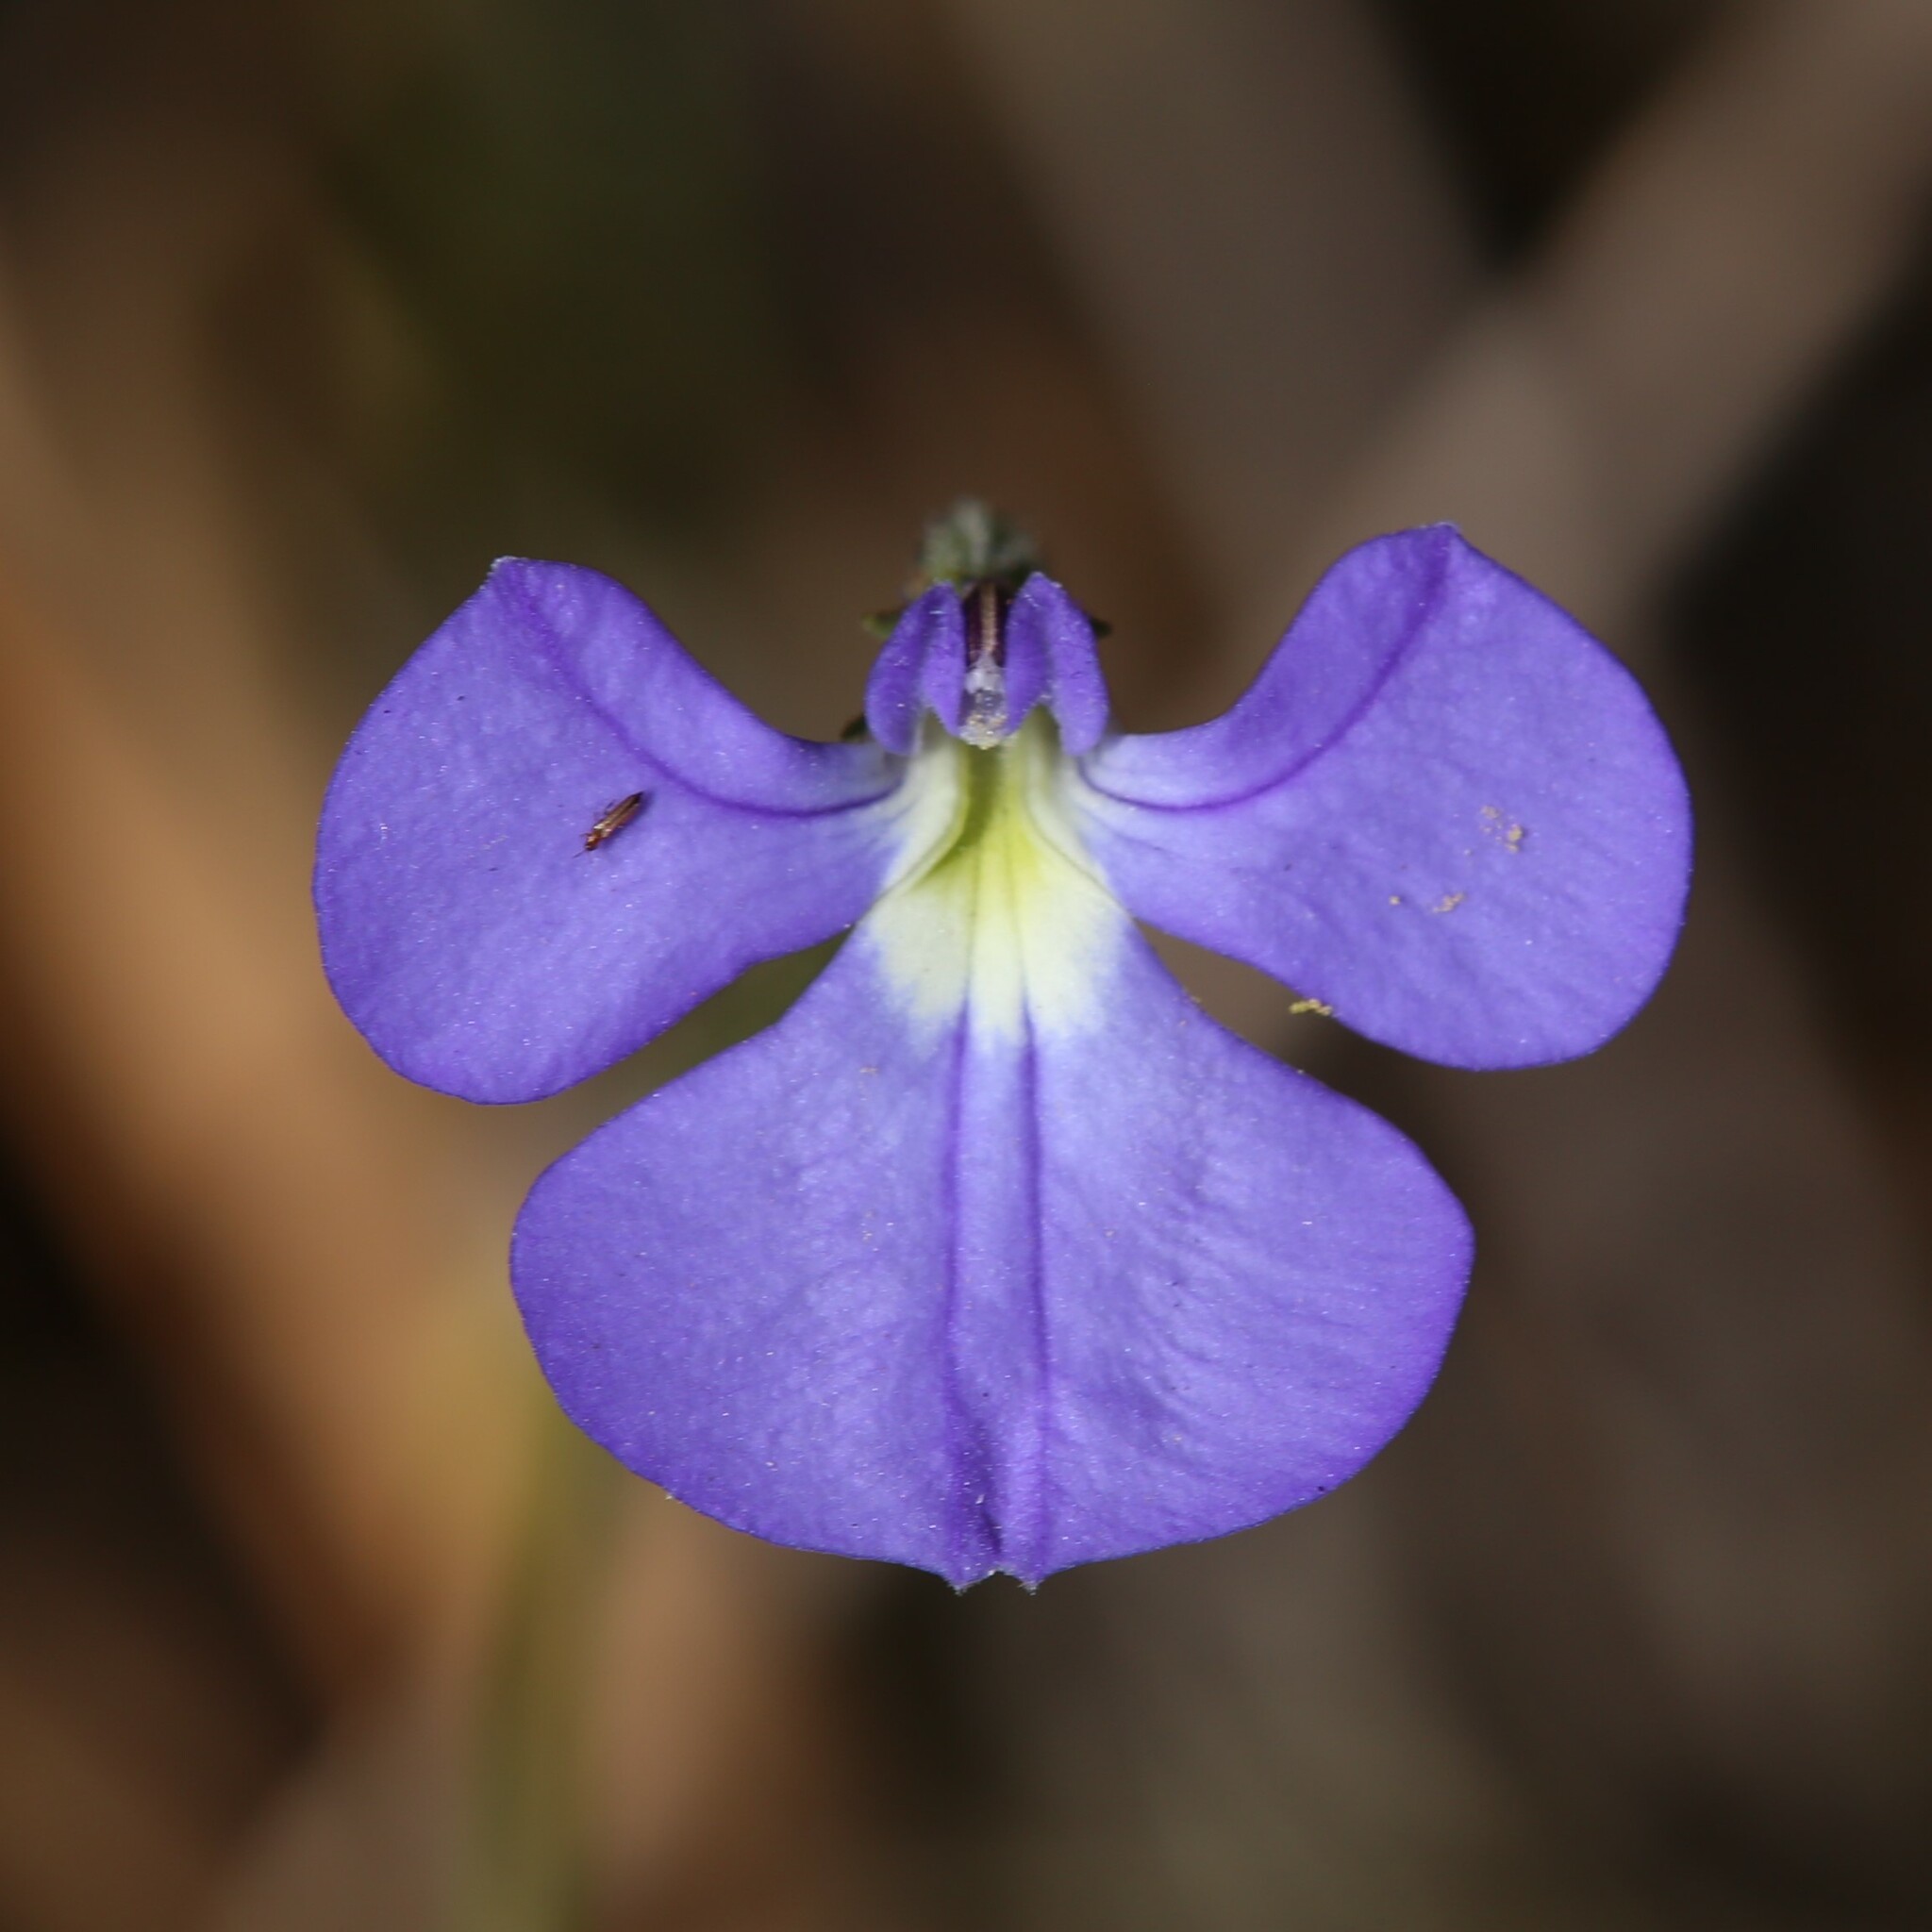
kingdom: Plantae
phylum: Tracheophyta
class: Magnoliopsida
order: Asterales
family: Campanulaceae
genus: Lobelia
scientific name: Lobelia tenuior
